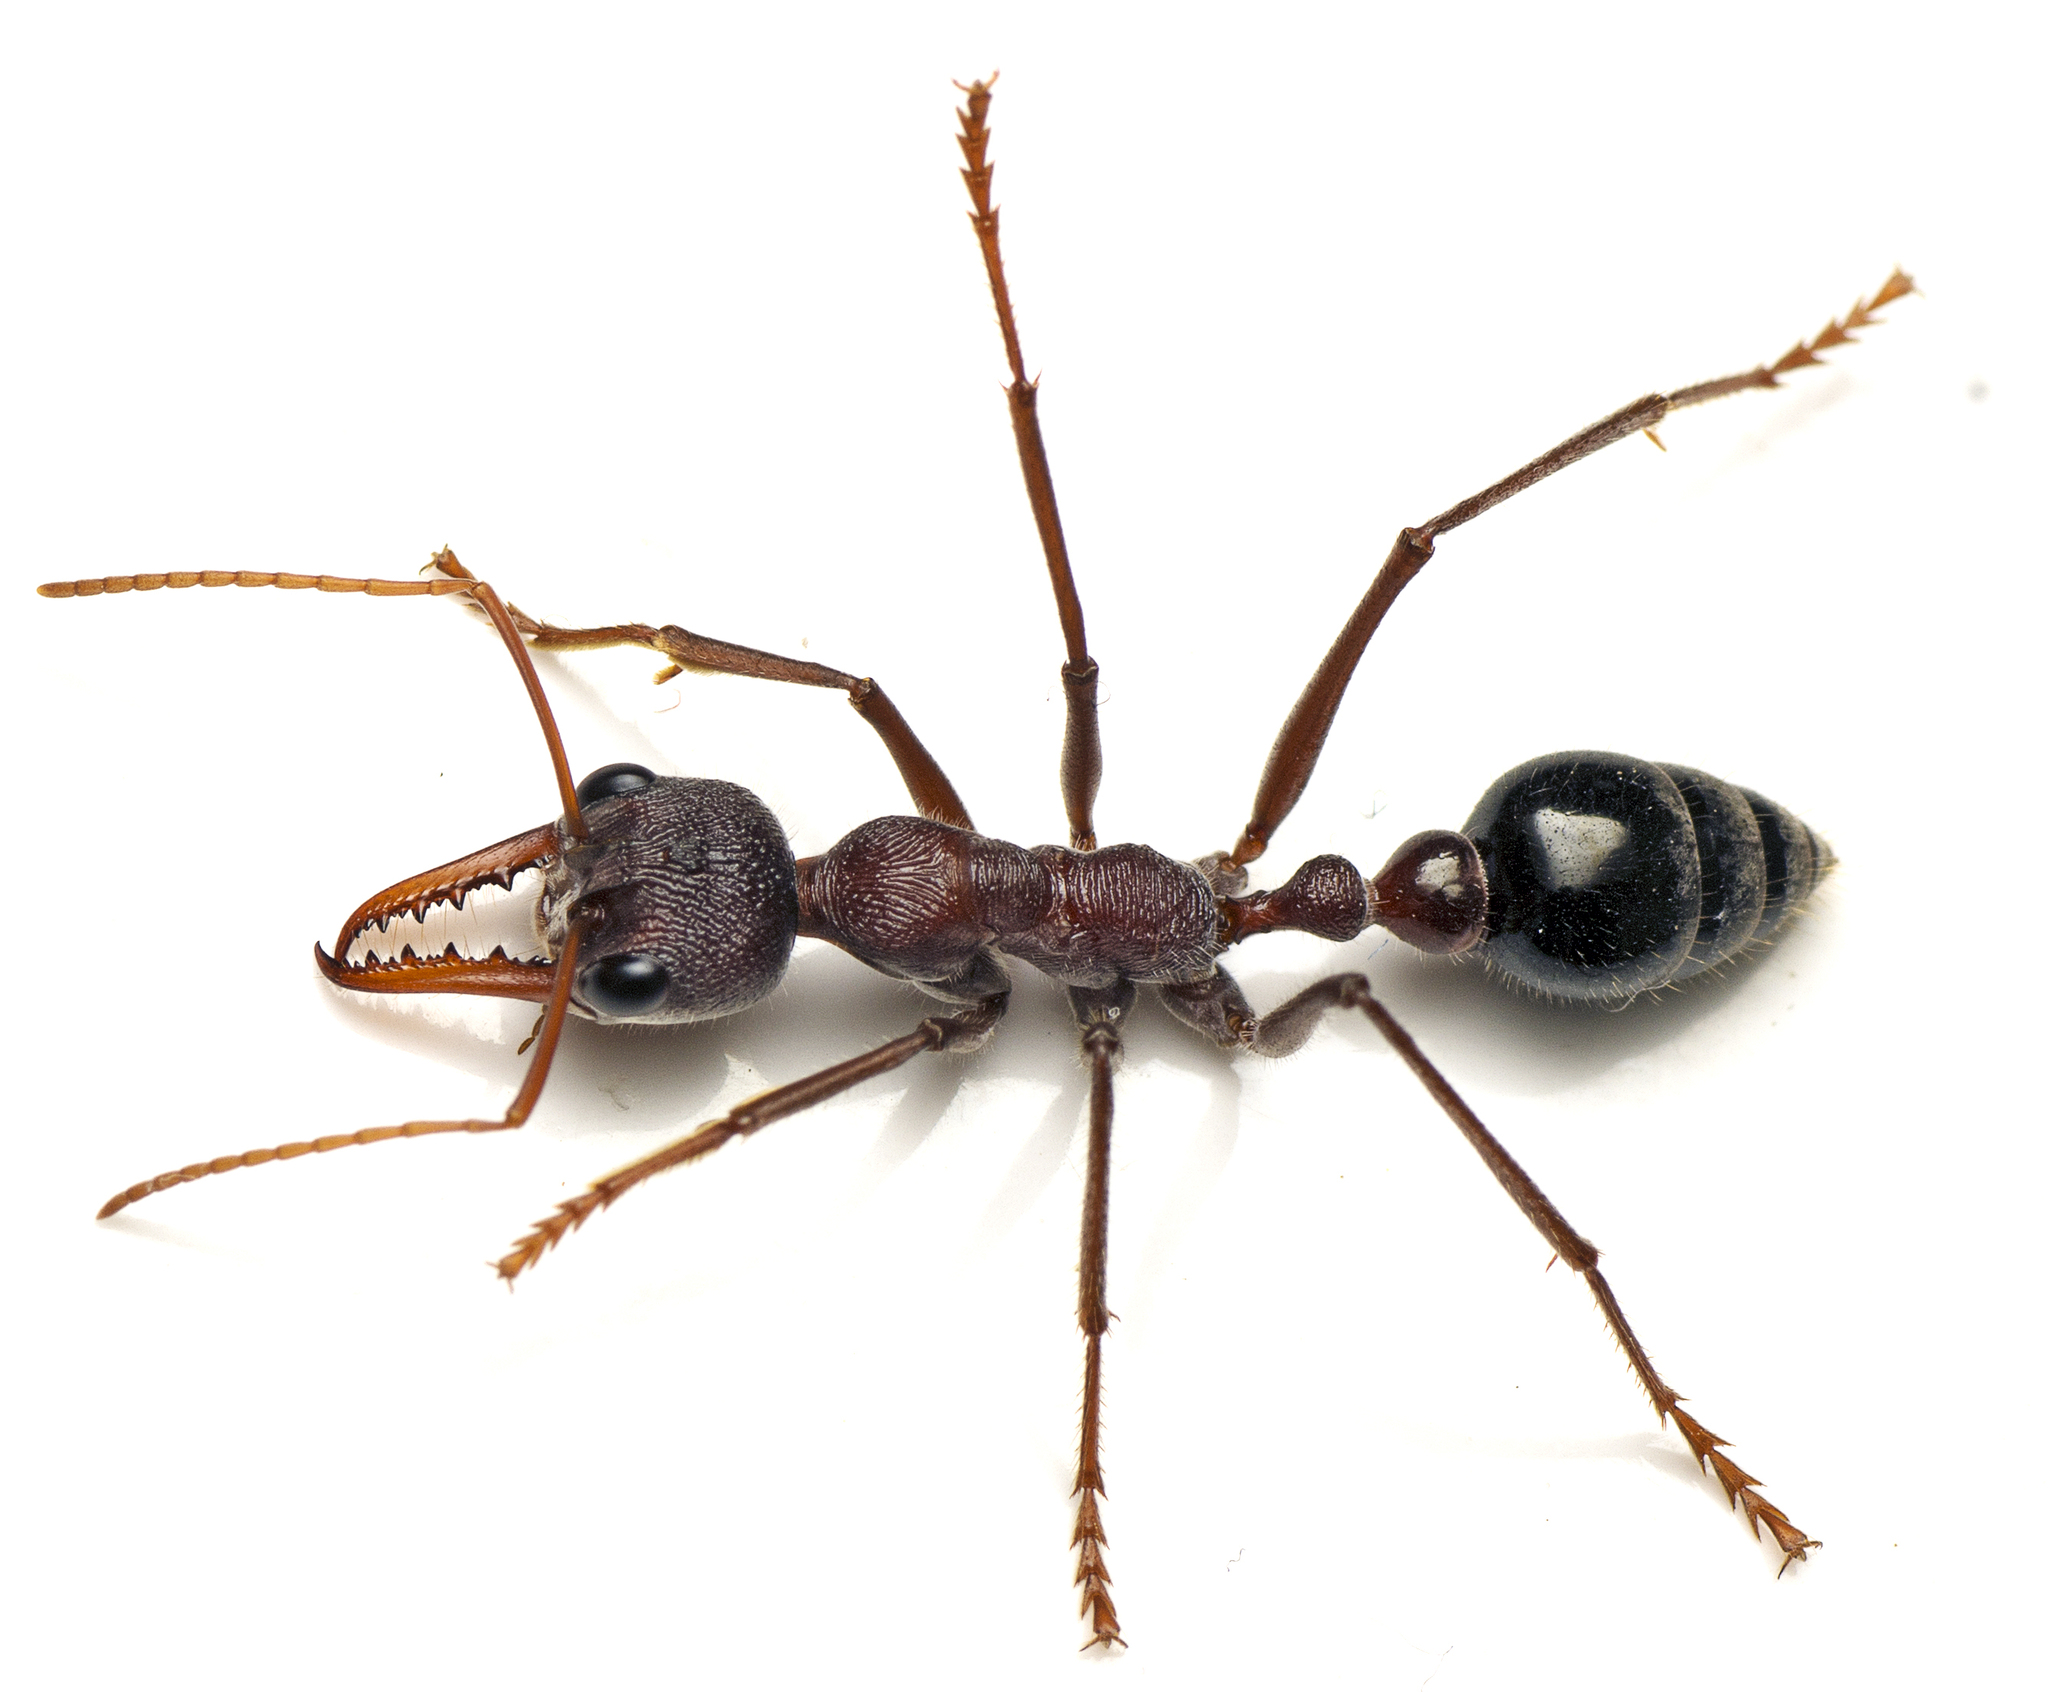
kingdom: Animalia
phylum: Arthropoda
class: Insecta
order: Hymenoptera
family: Formicidae
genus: Myrmecia
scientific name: Myrmecia simillima
